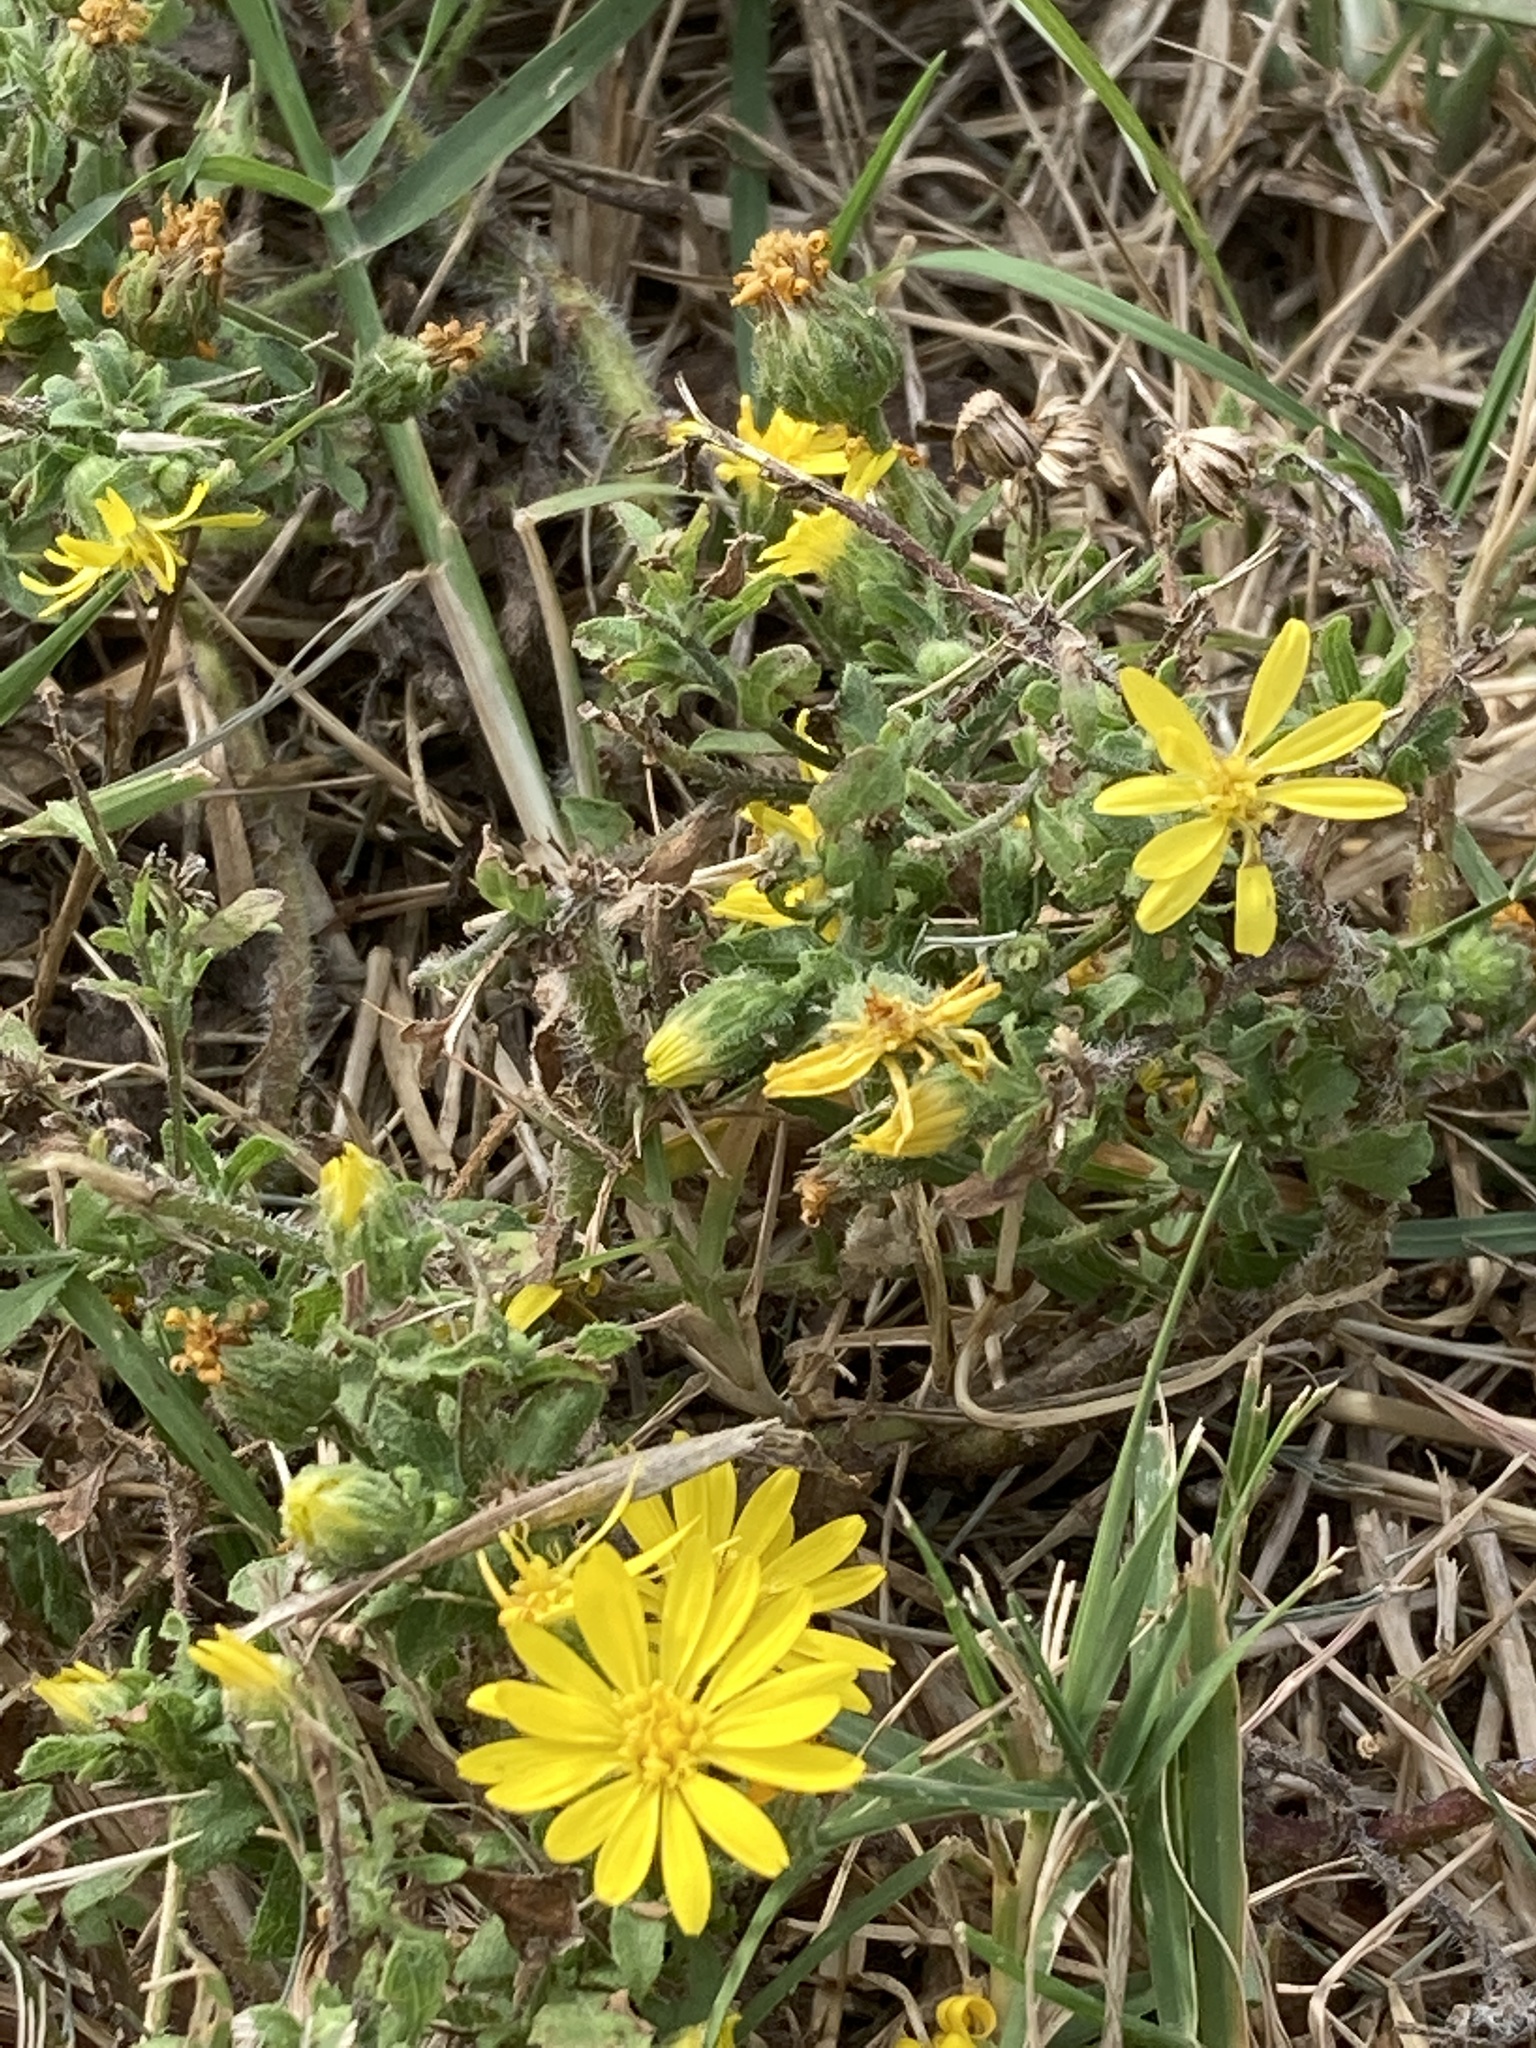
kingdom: Plantae
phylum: Tracheophyta
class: Magnoliopsida
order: Asterales
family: Asteraceae
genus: Heterotheca
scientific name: Heterotheca subaxillaris
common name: Camphorweed
